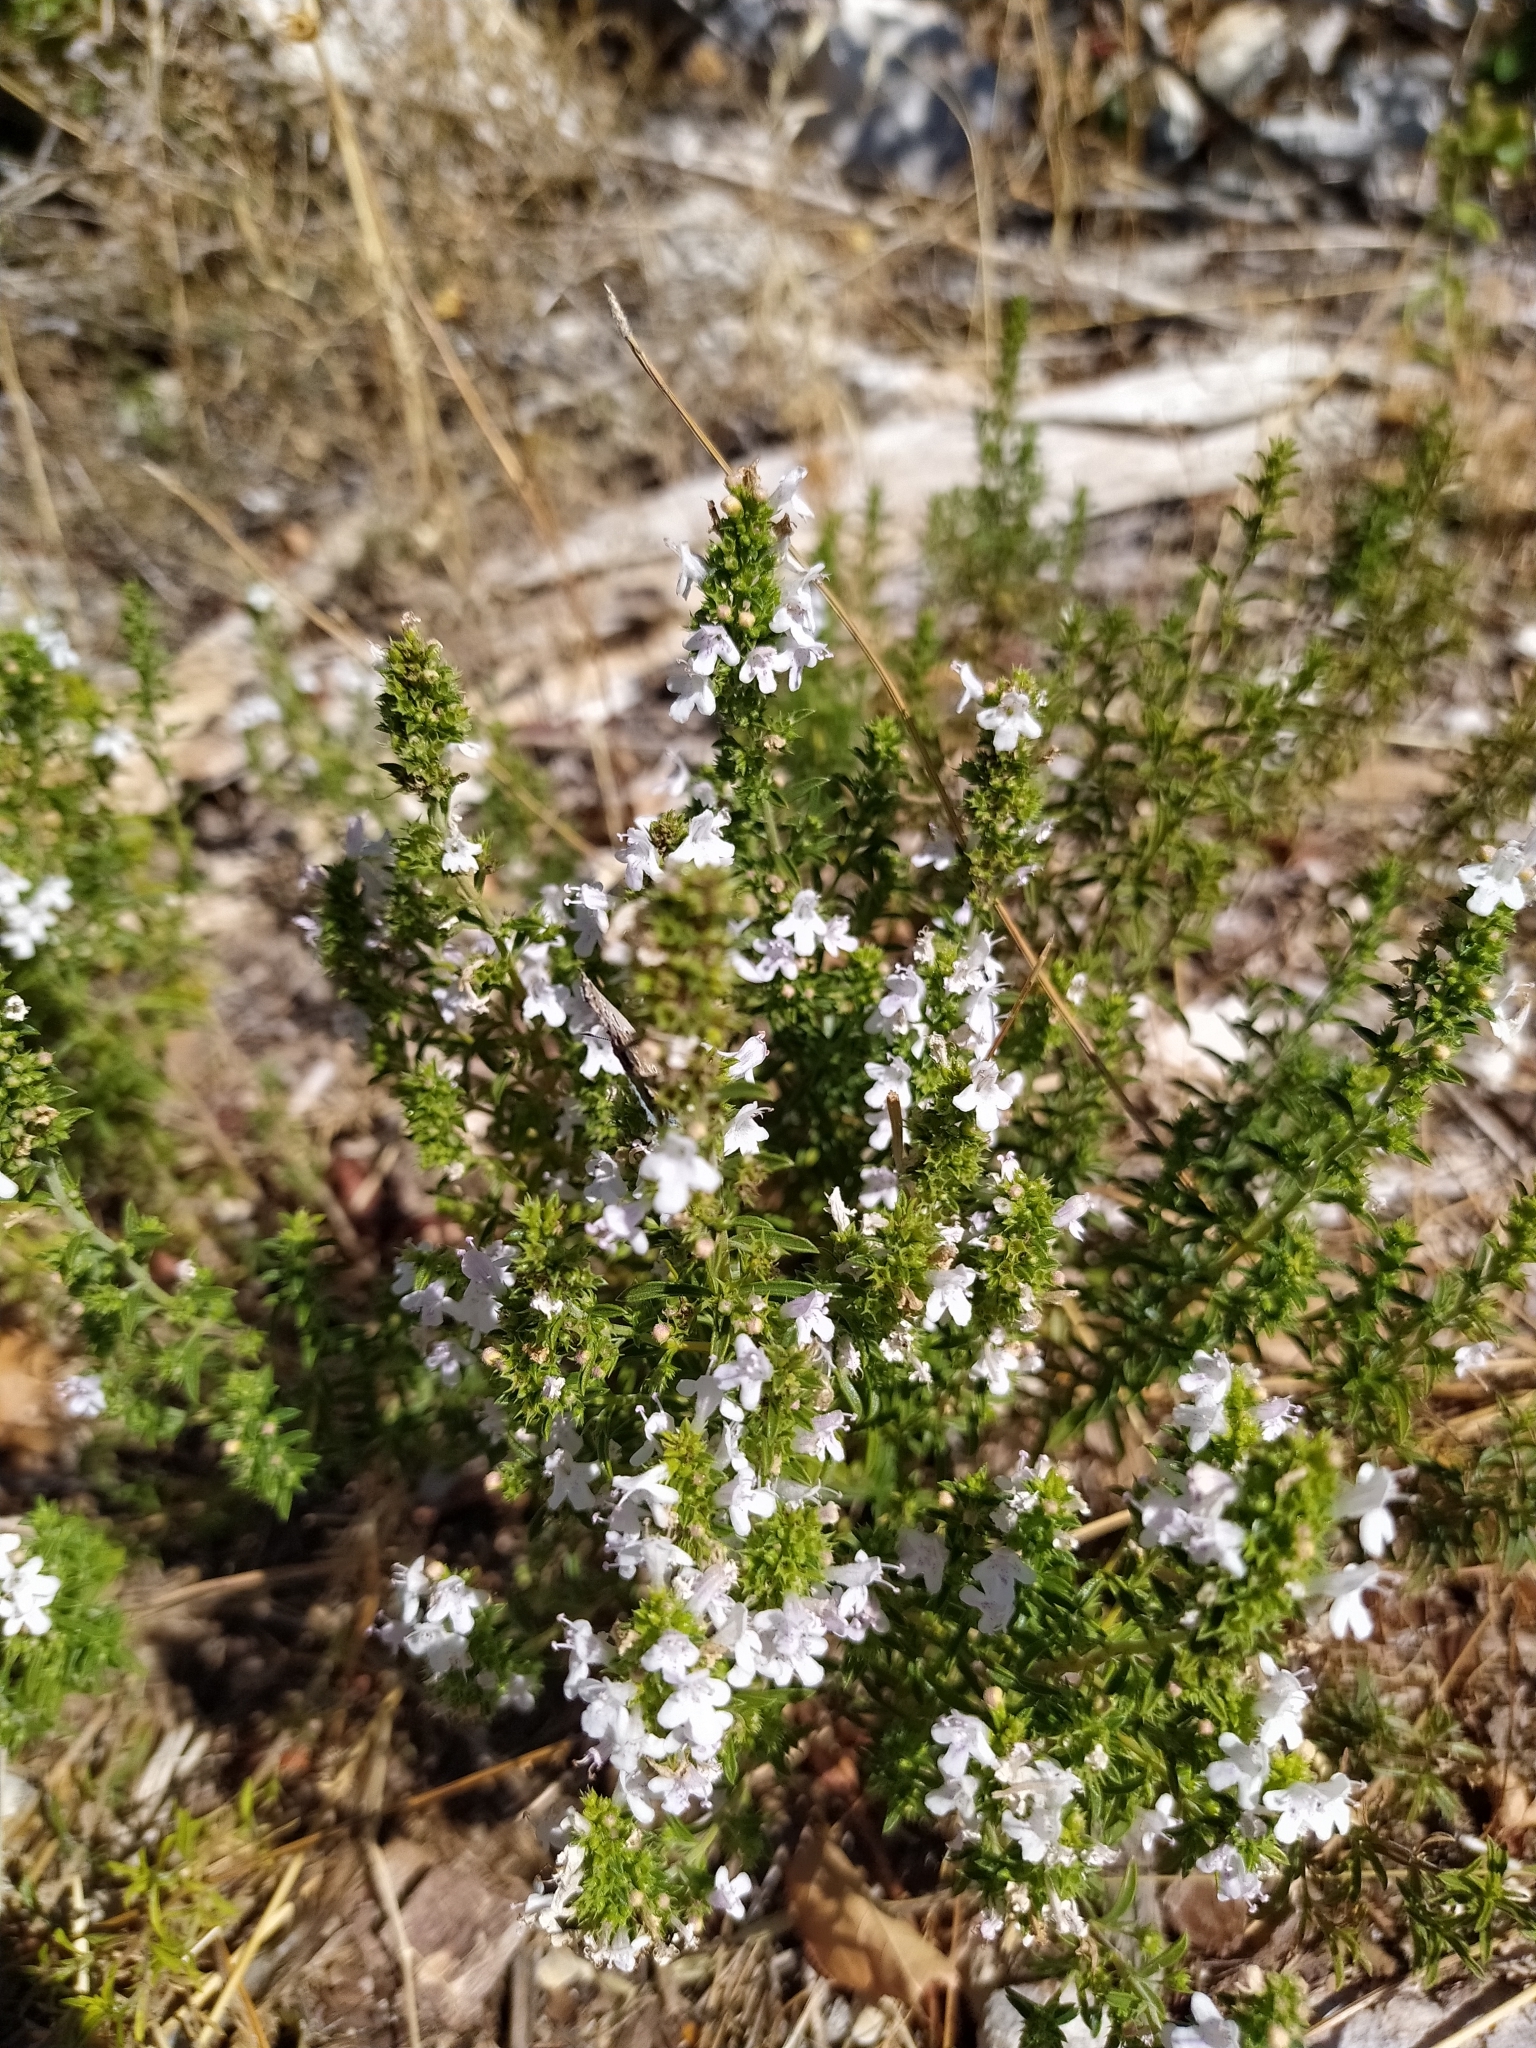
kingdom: Plantae
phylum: Tracheophyta
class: Magnoliopsida
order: Lamiales
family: Lamiaceae
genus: Satureja
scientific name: Satureja montana
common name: Winter savory
